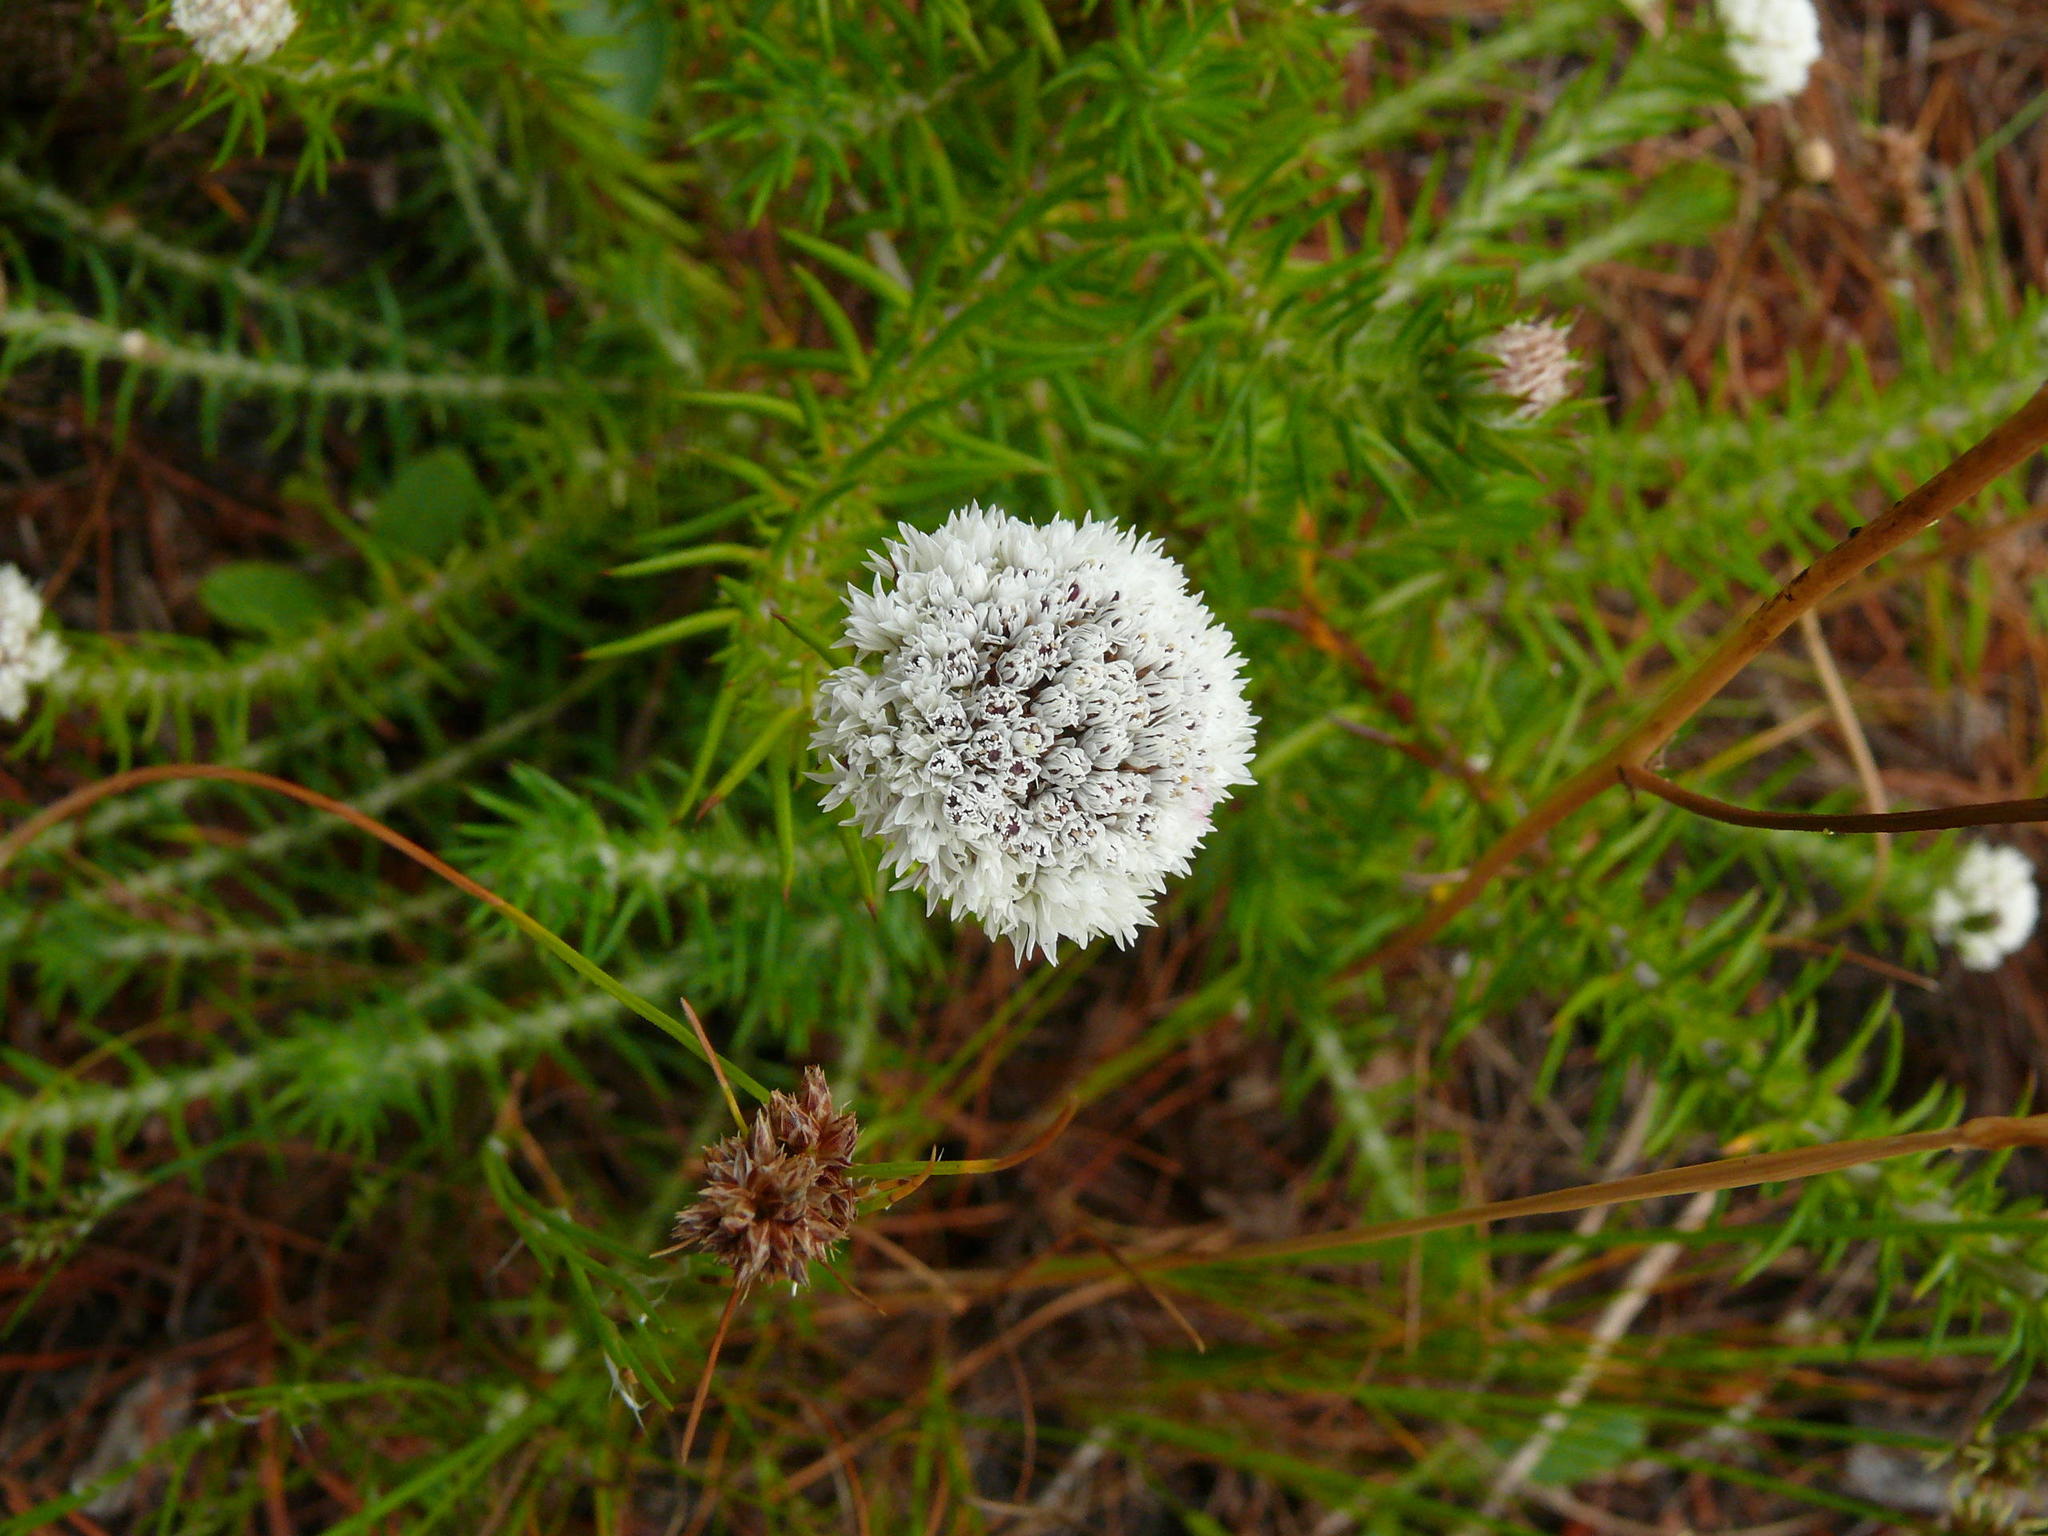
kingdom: Plantae
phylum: Tracheophyta
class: Magnoliopsida
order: Asterales
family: Asteraceae
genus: Metalasia
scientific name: Metalasia pulchella
